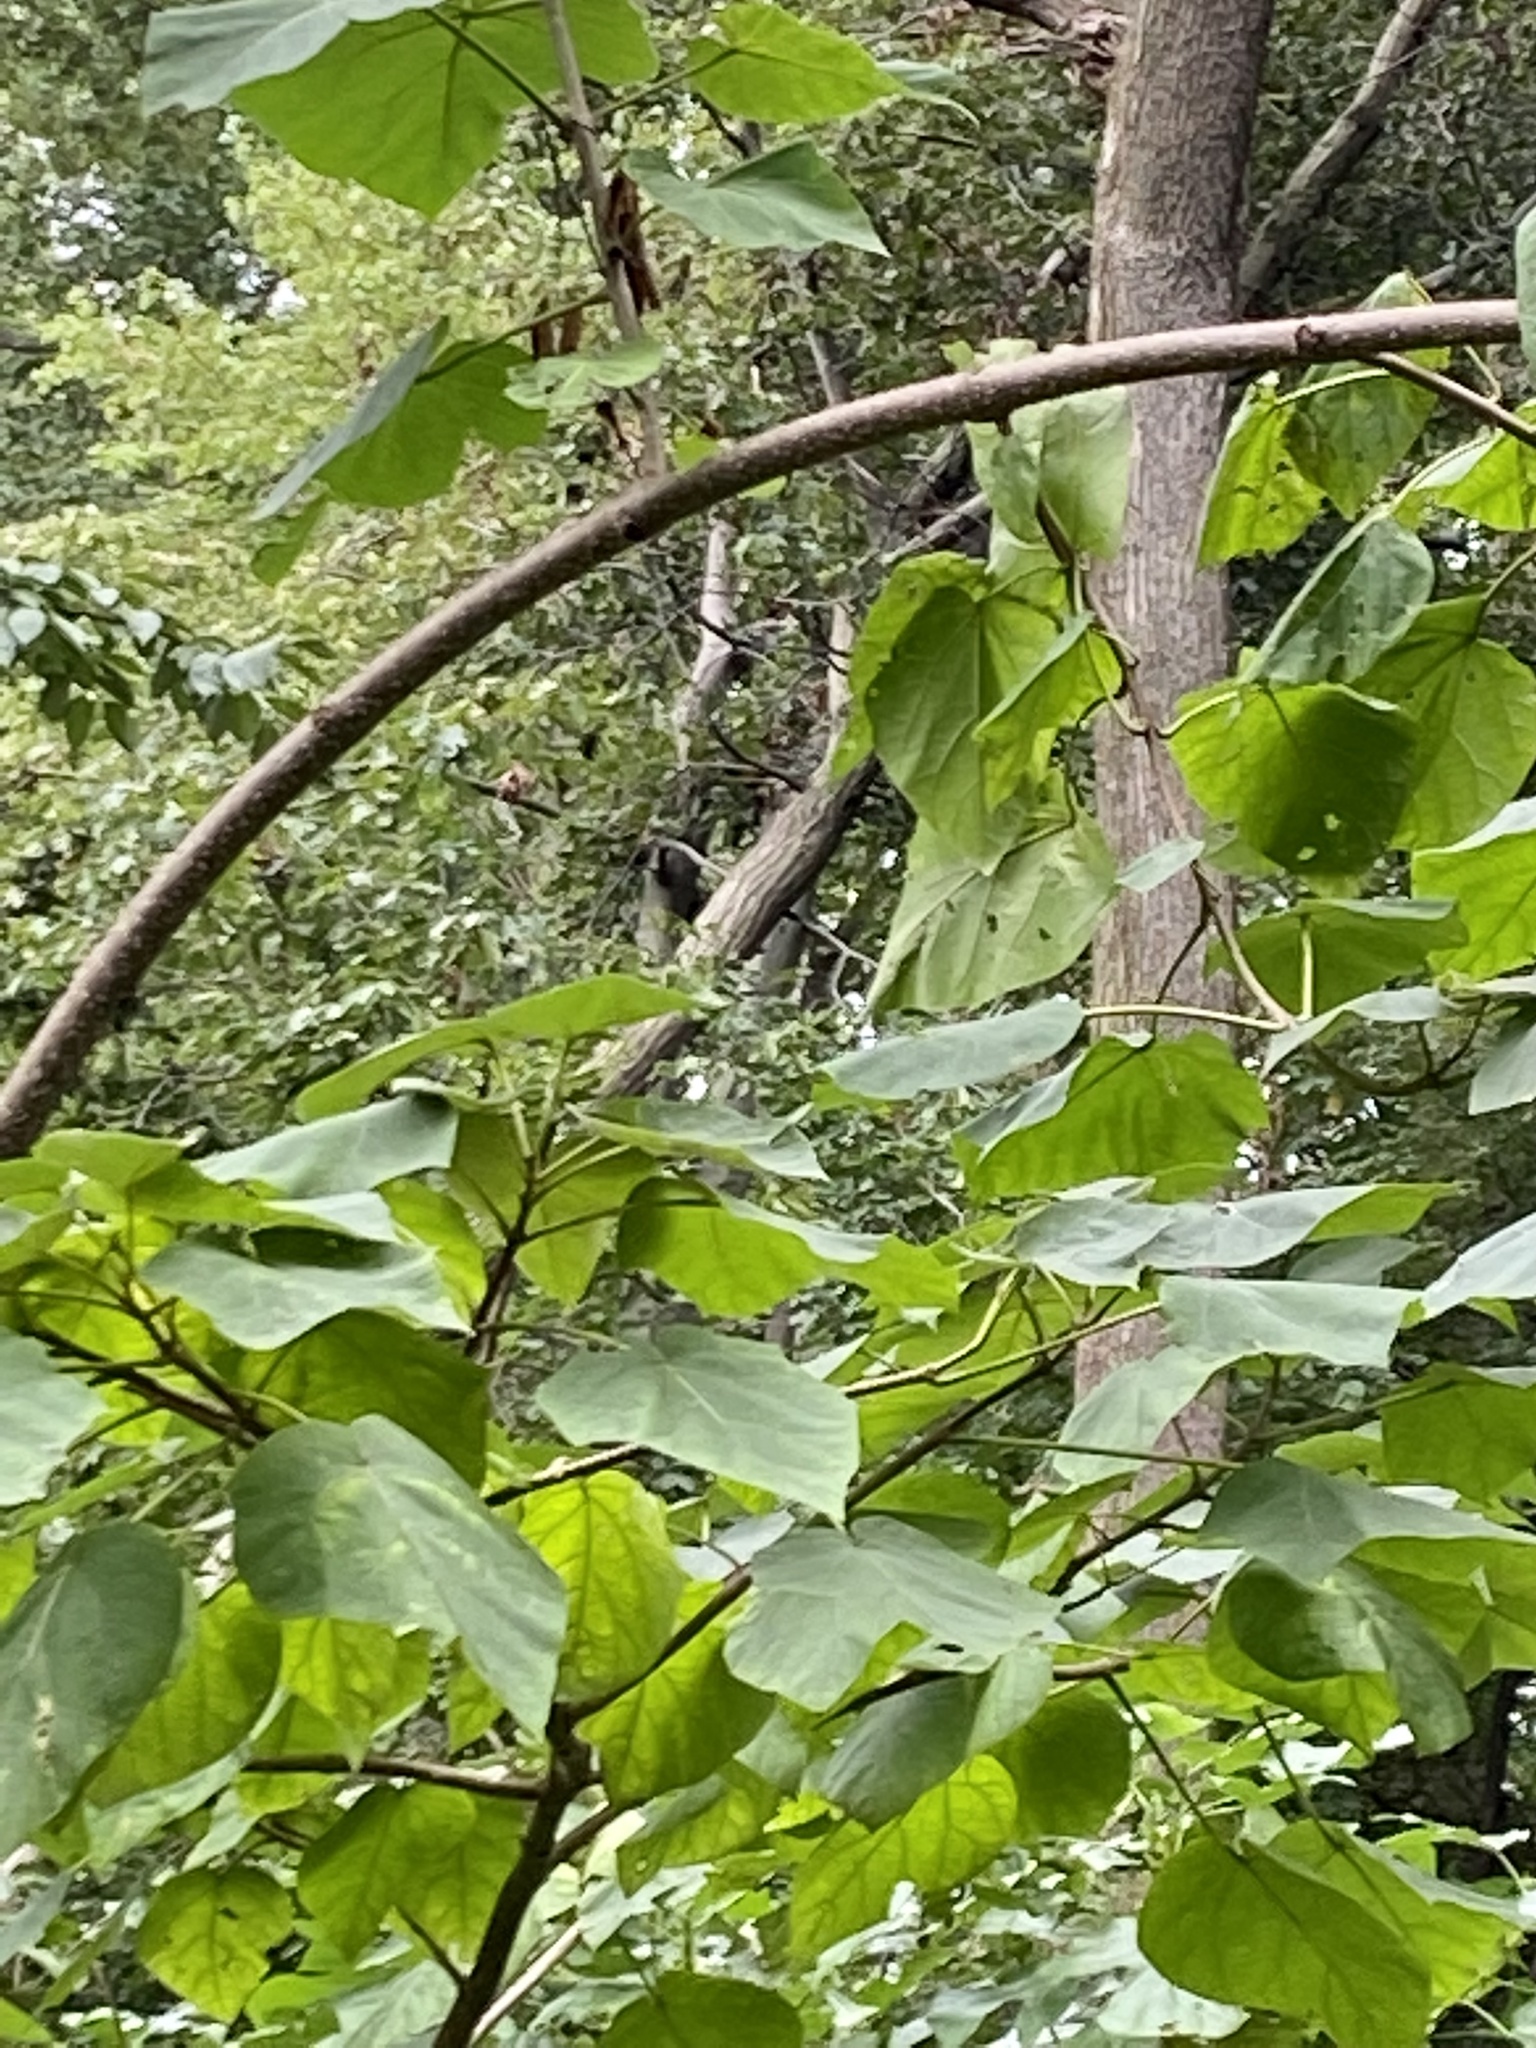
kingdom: Plantae
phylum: Tracheophyta
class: Magnoliopsida
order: Lamiales
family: Paulowniaceae
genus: Paulownia
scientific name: Paulownia tomentosa
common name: Foxglove-tree
